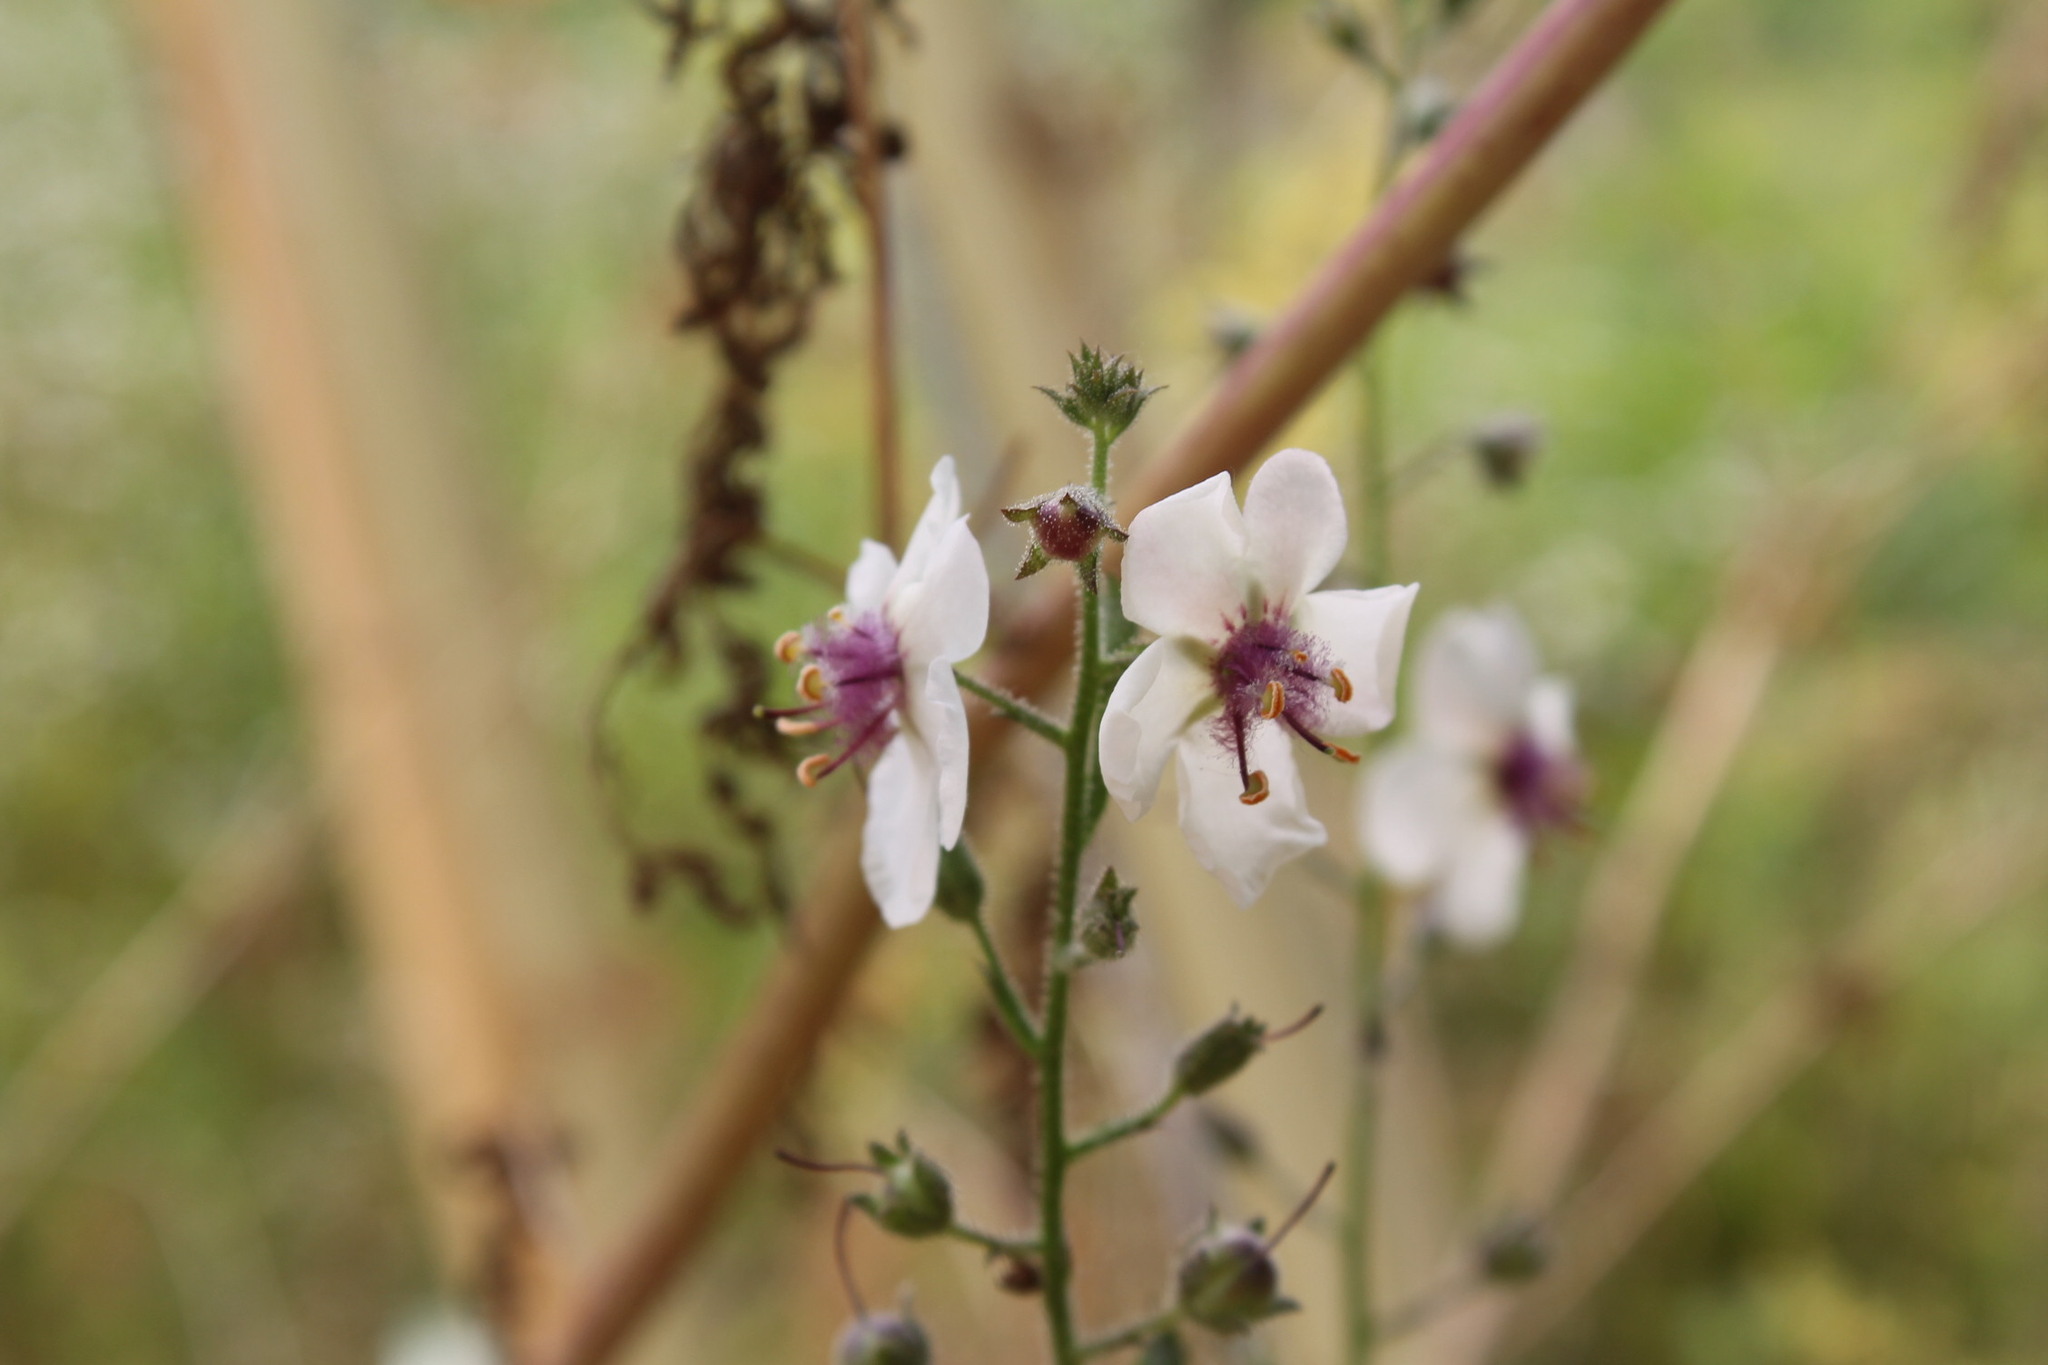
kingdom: Plantae
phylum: Tracheophyta
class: Magnoliopsida
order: Lamiales
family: Scrophulariaceae
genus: Verbascum
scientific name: Verbascum blattaria
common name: Moth mullein
